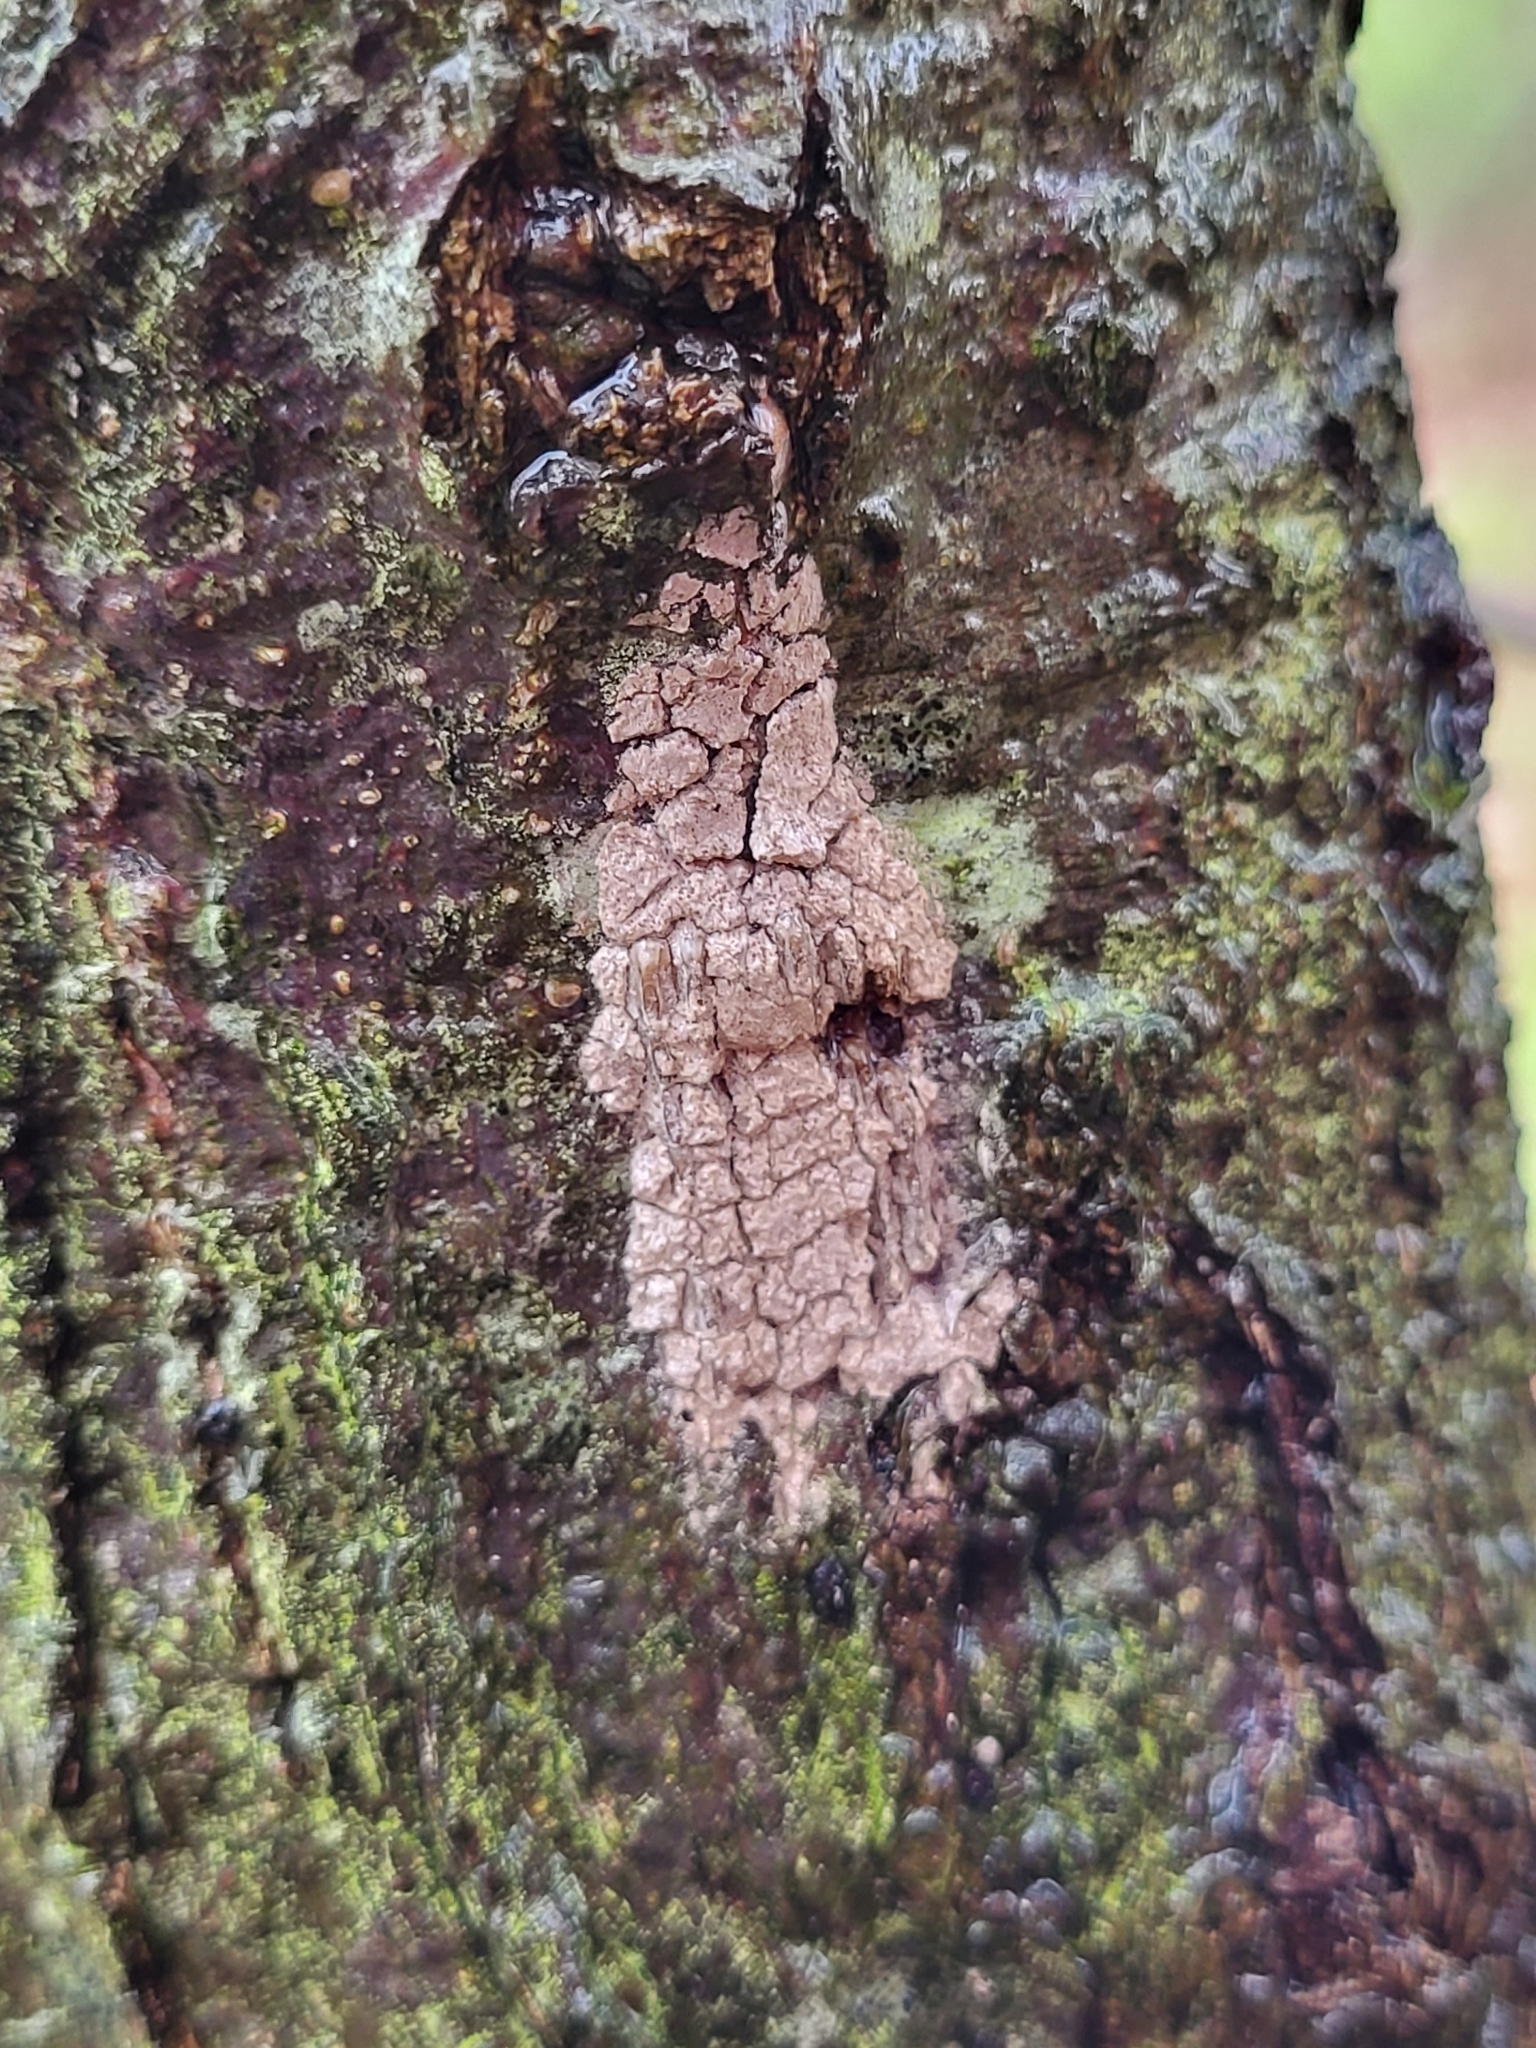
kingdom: Animalia
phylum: Arthropoda
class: Insecta
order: Hemiptera
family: Fulgoridae
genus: Lycorma
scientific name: Lycorma delicatula
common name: Spotted lanternfly
